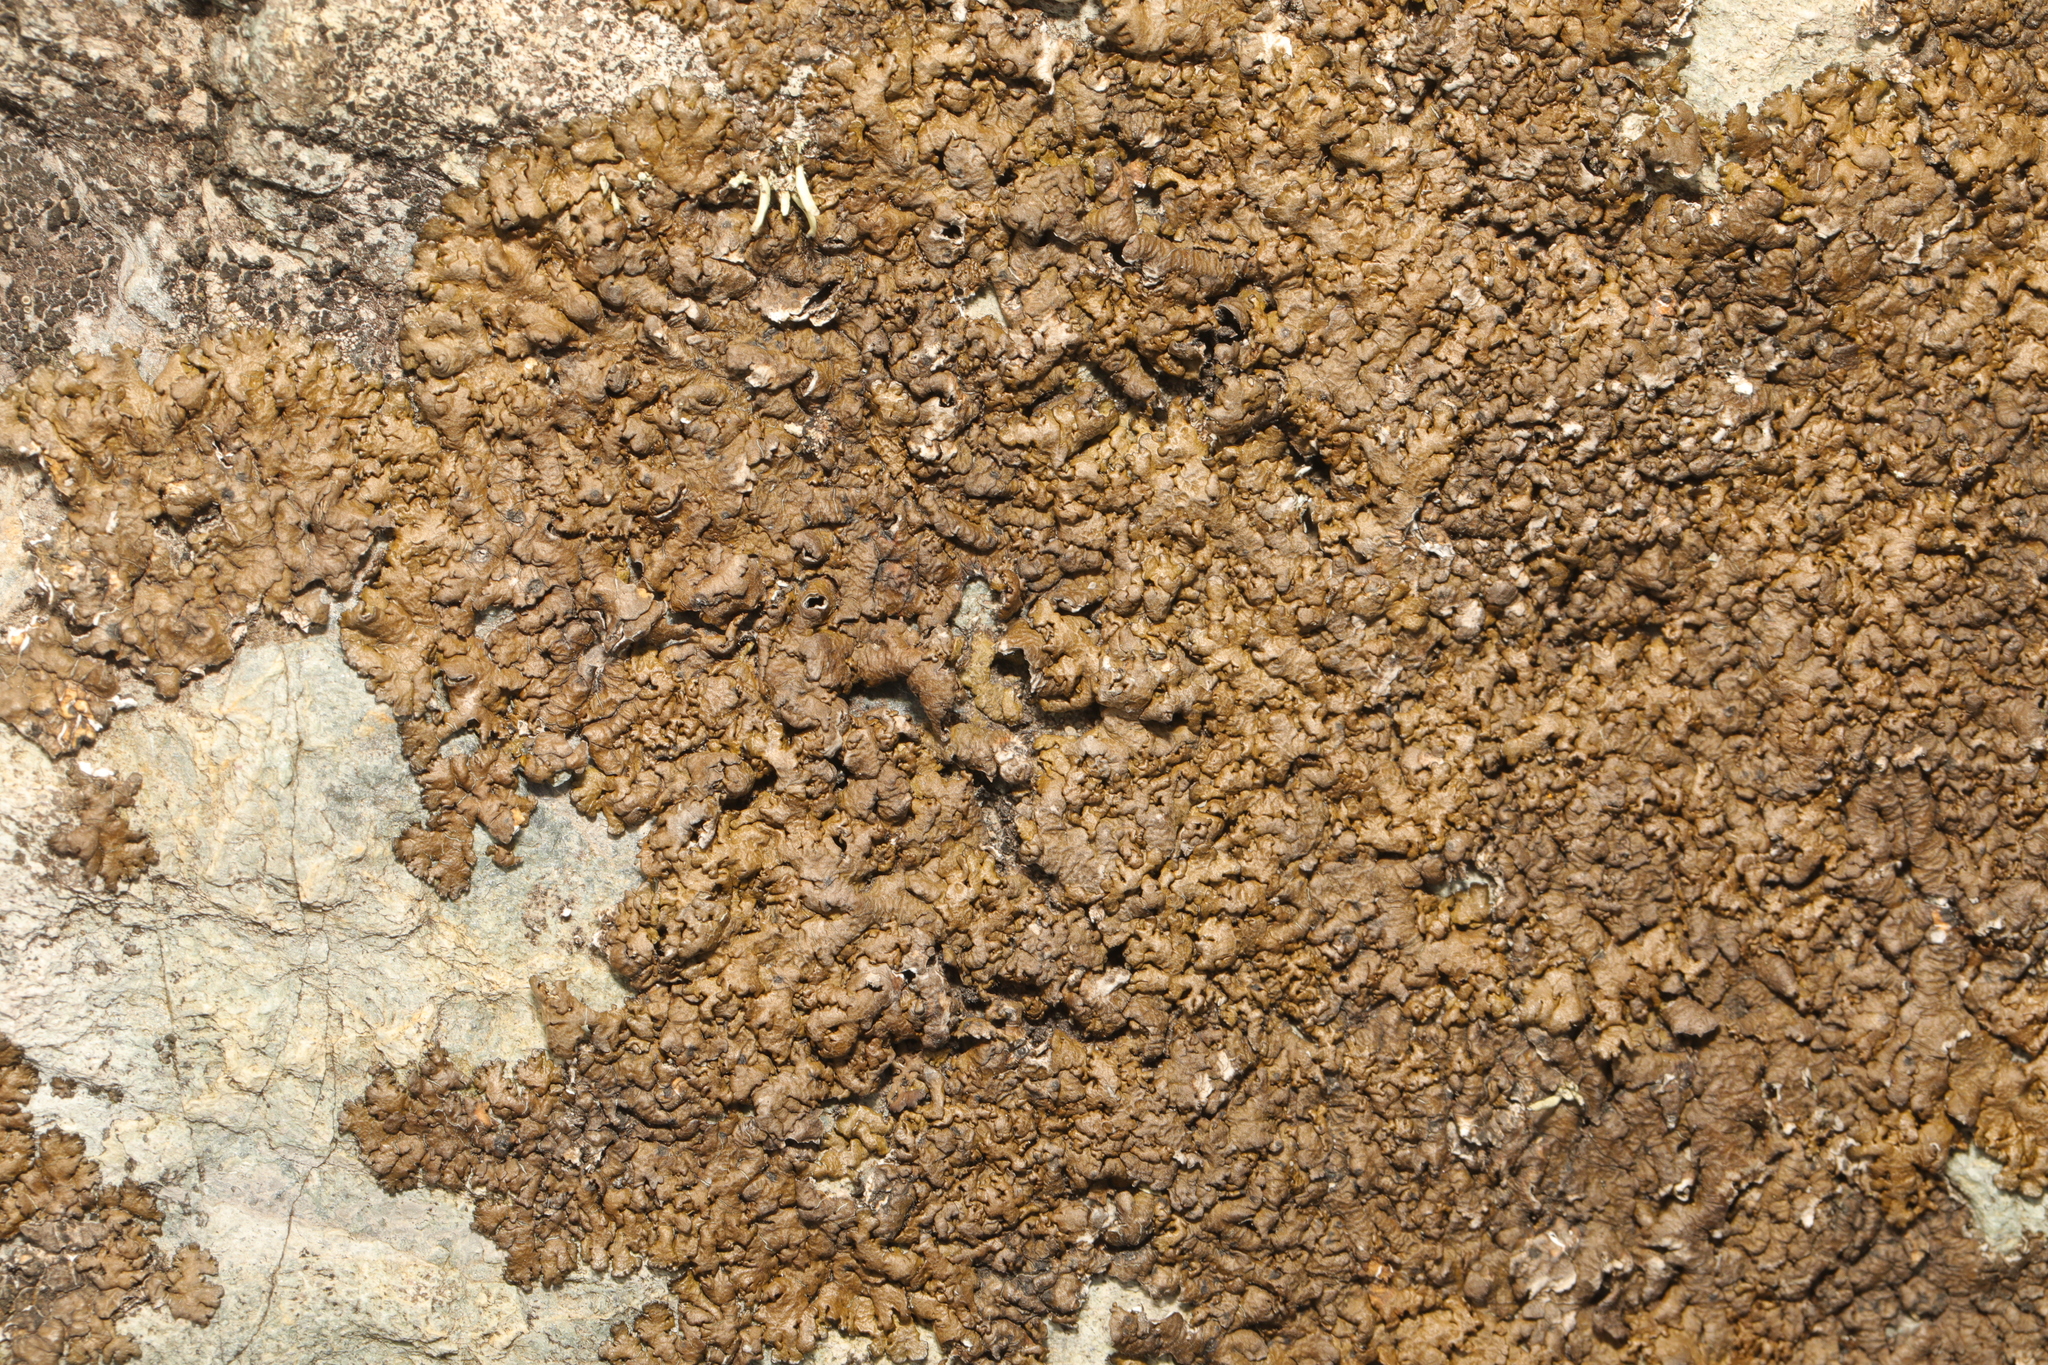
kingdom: Fungi
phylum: Ascomycota
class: Lecanoromycetes
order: Lecanorales
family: Parmeliaceae
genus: Xanthoparmelia
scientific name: Xanthoparmelia pulla
